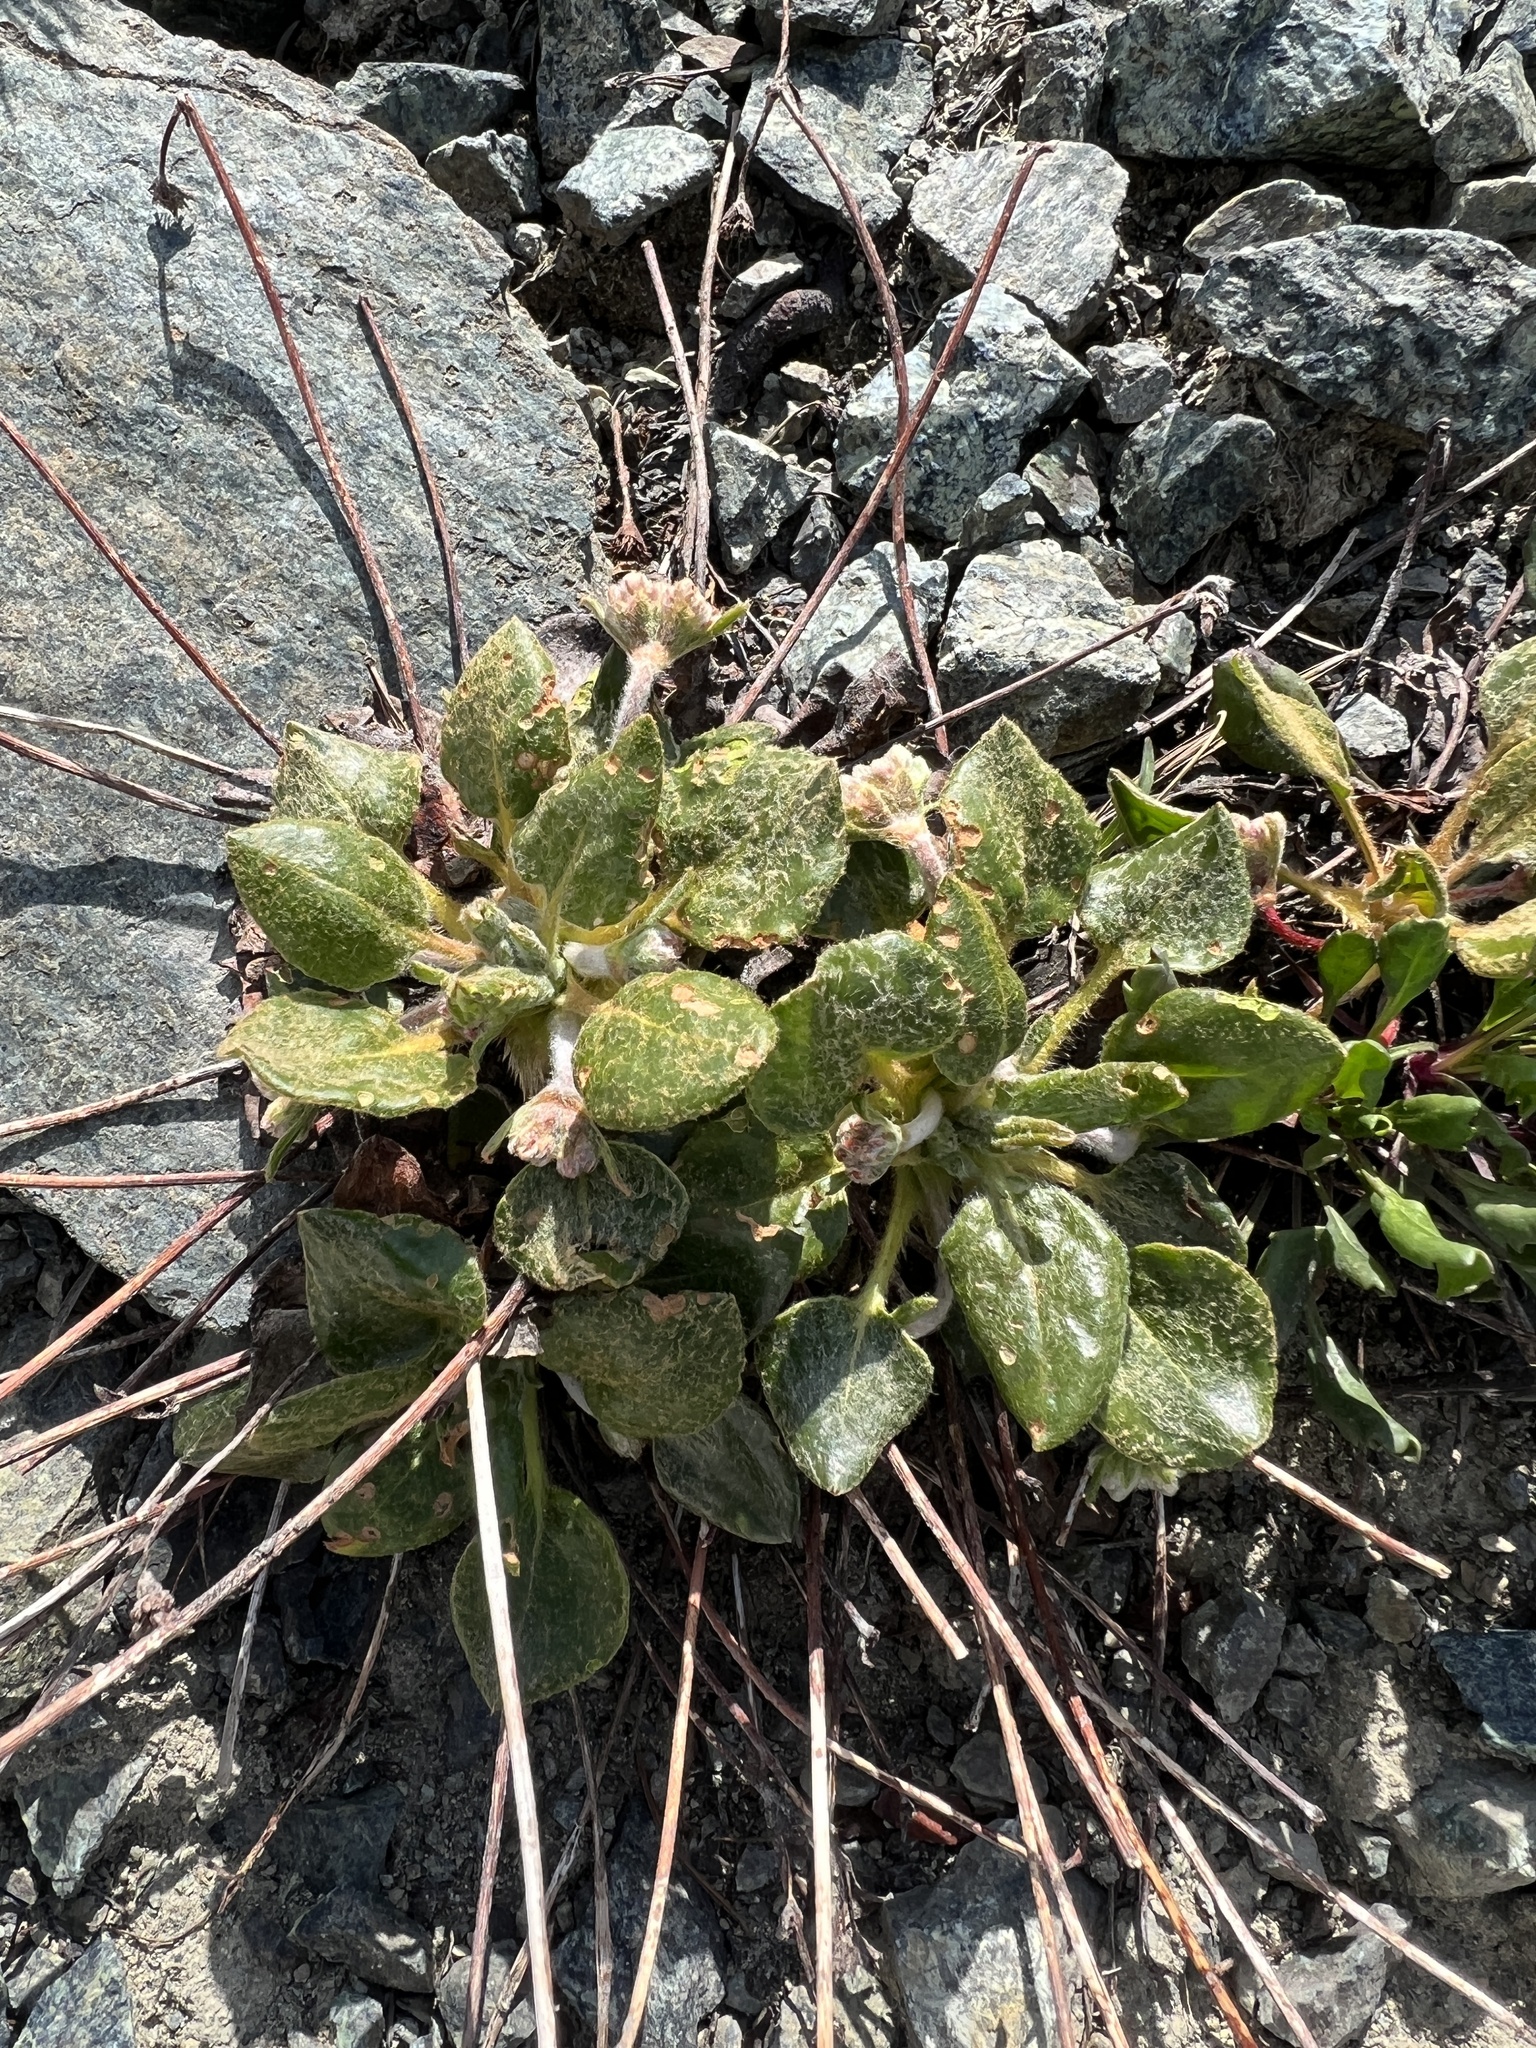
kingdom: Plantae
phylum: Tracheophyta
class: Magnoliopsida
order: Caryophyllales
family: Polygonaceae
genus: Eriogonum
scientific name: Eriogonum pyrolifolium
